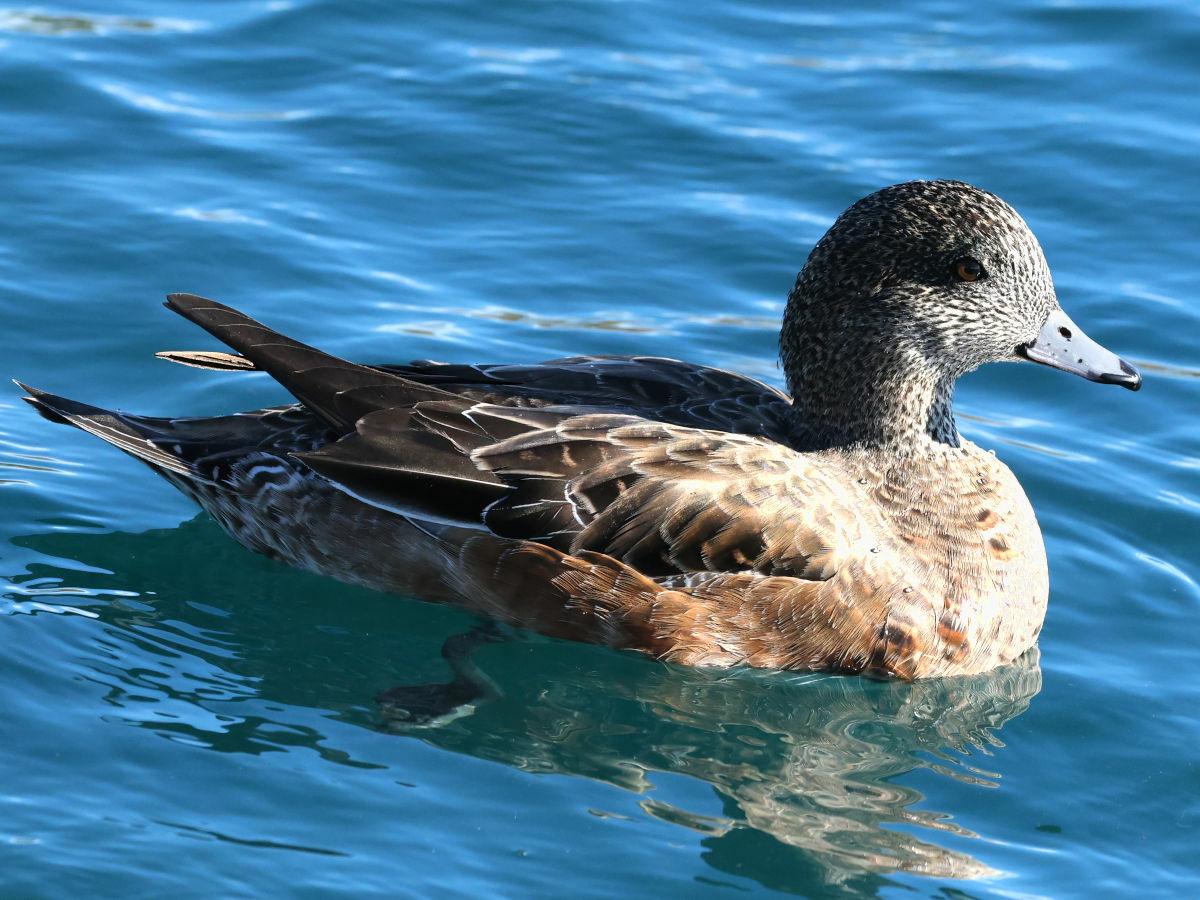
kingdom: Animalia
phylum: Chordata
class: Aves
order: Anseriformes
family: Anatidae
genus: Mareca
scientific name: Mareca americana
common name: American wigeon
